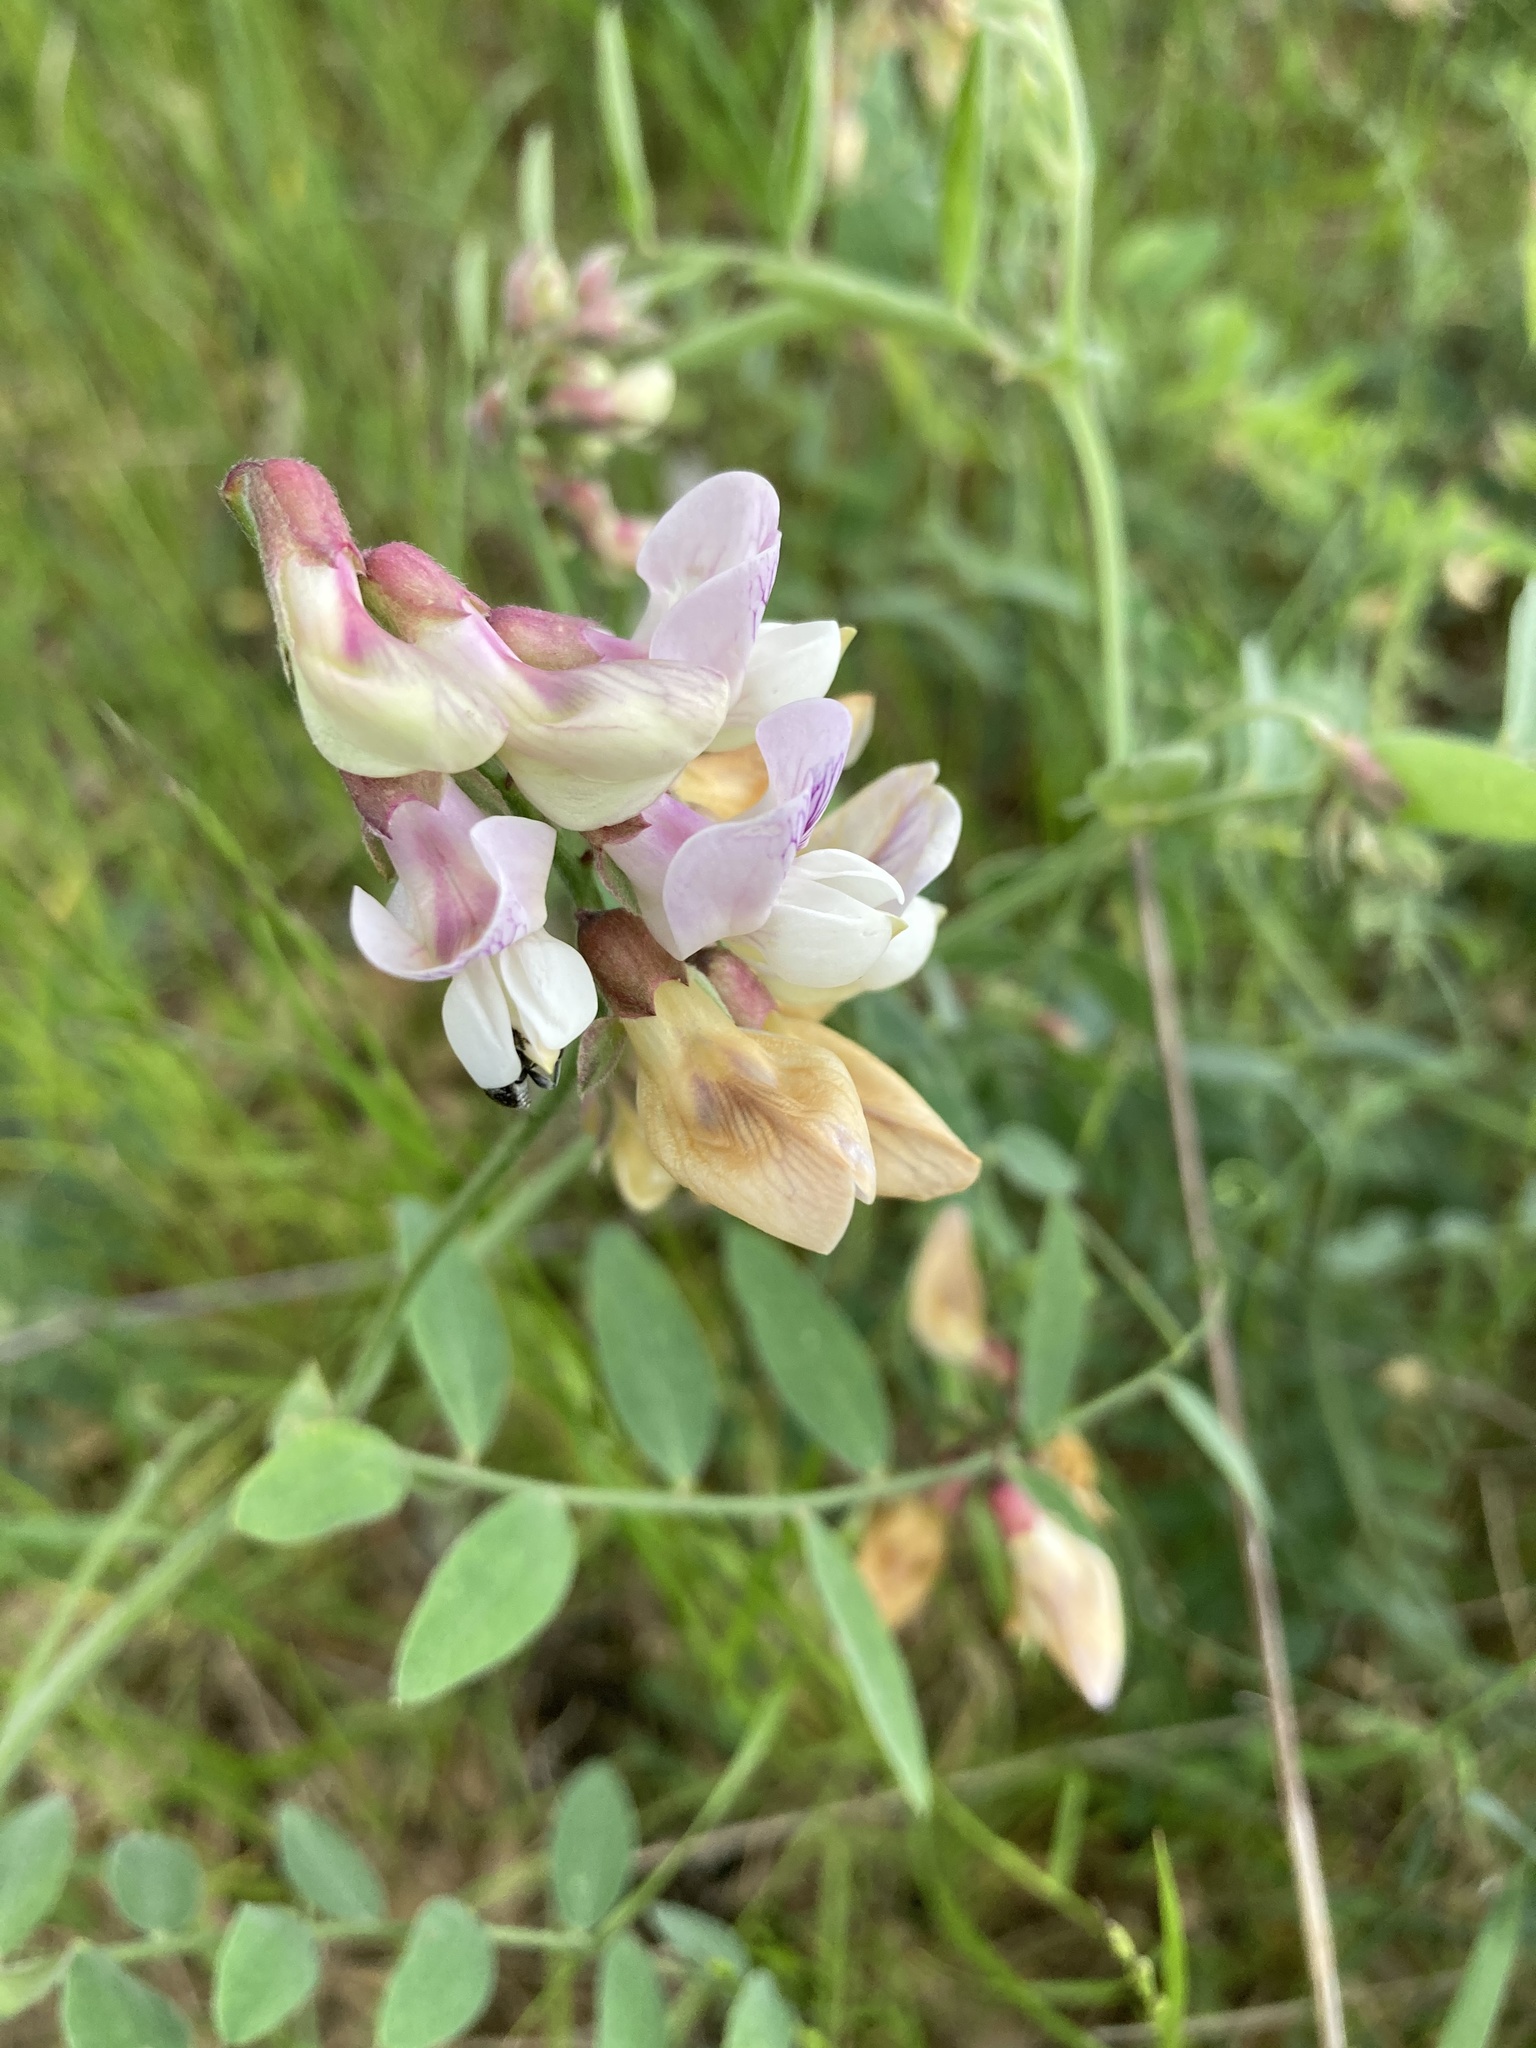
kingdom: Plantae
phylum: Tracheophyta
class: Magnoliopsida
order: Fabales
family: Fabaceae
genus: Lathyrus
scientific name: Lathyrus vestitus
